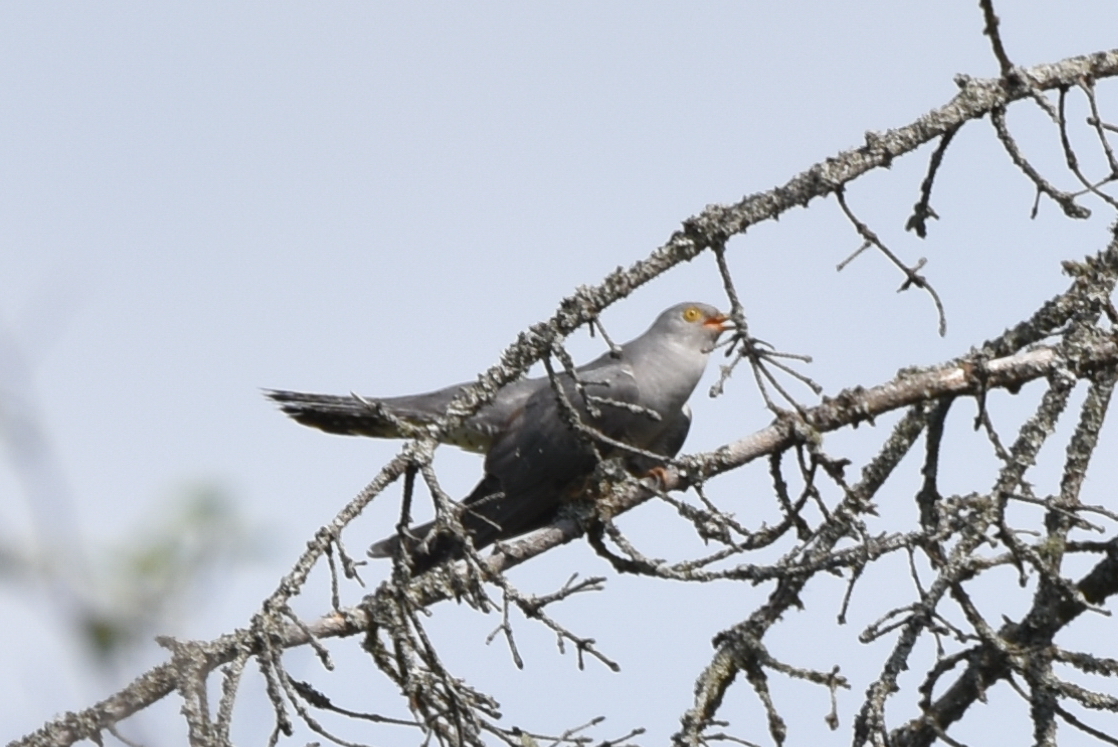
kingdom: Animalia
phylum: Chordata
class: Aves
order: Cuculiformes
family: Cuculidae
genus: Cuculus
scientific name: Cuculus canorus
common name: Common cuckoo
